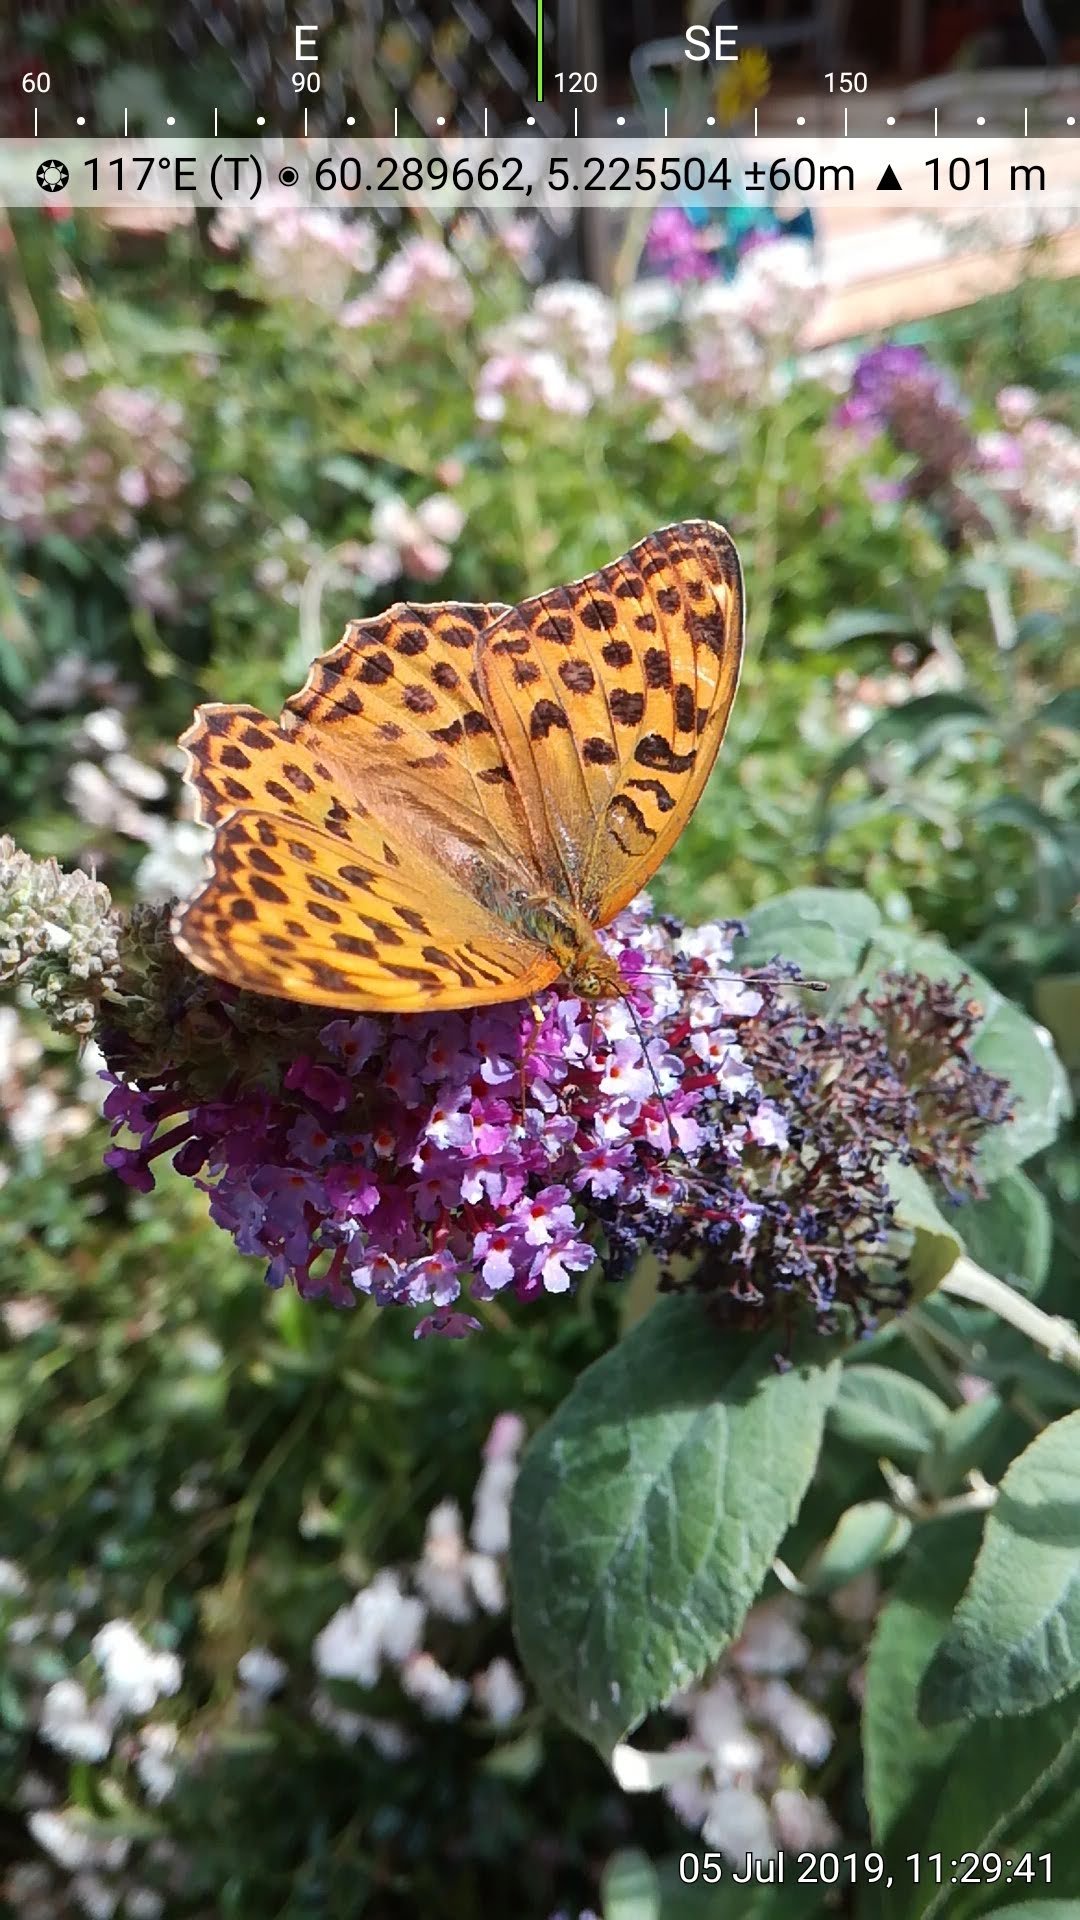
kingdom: Animalia
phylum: Arthropoda
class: Insecta
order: Lepidoptera
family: Nymphalidae
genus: Argynnis
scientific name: Argynnis paphia
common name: Silver-washed fritillary
